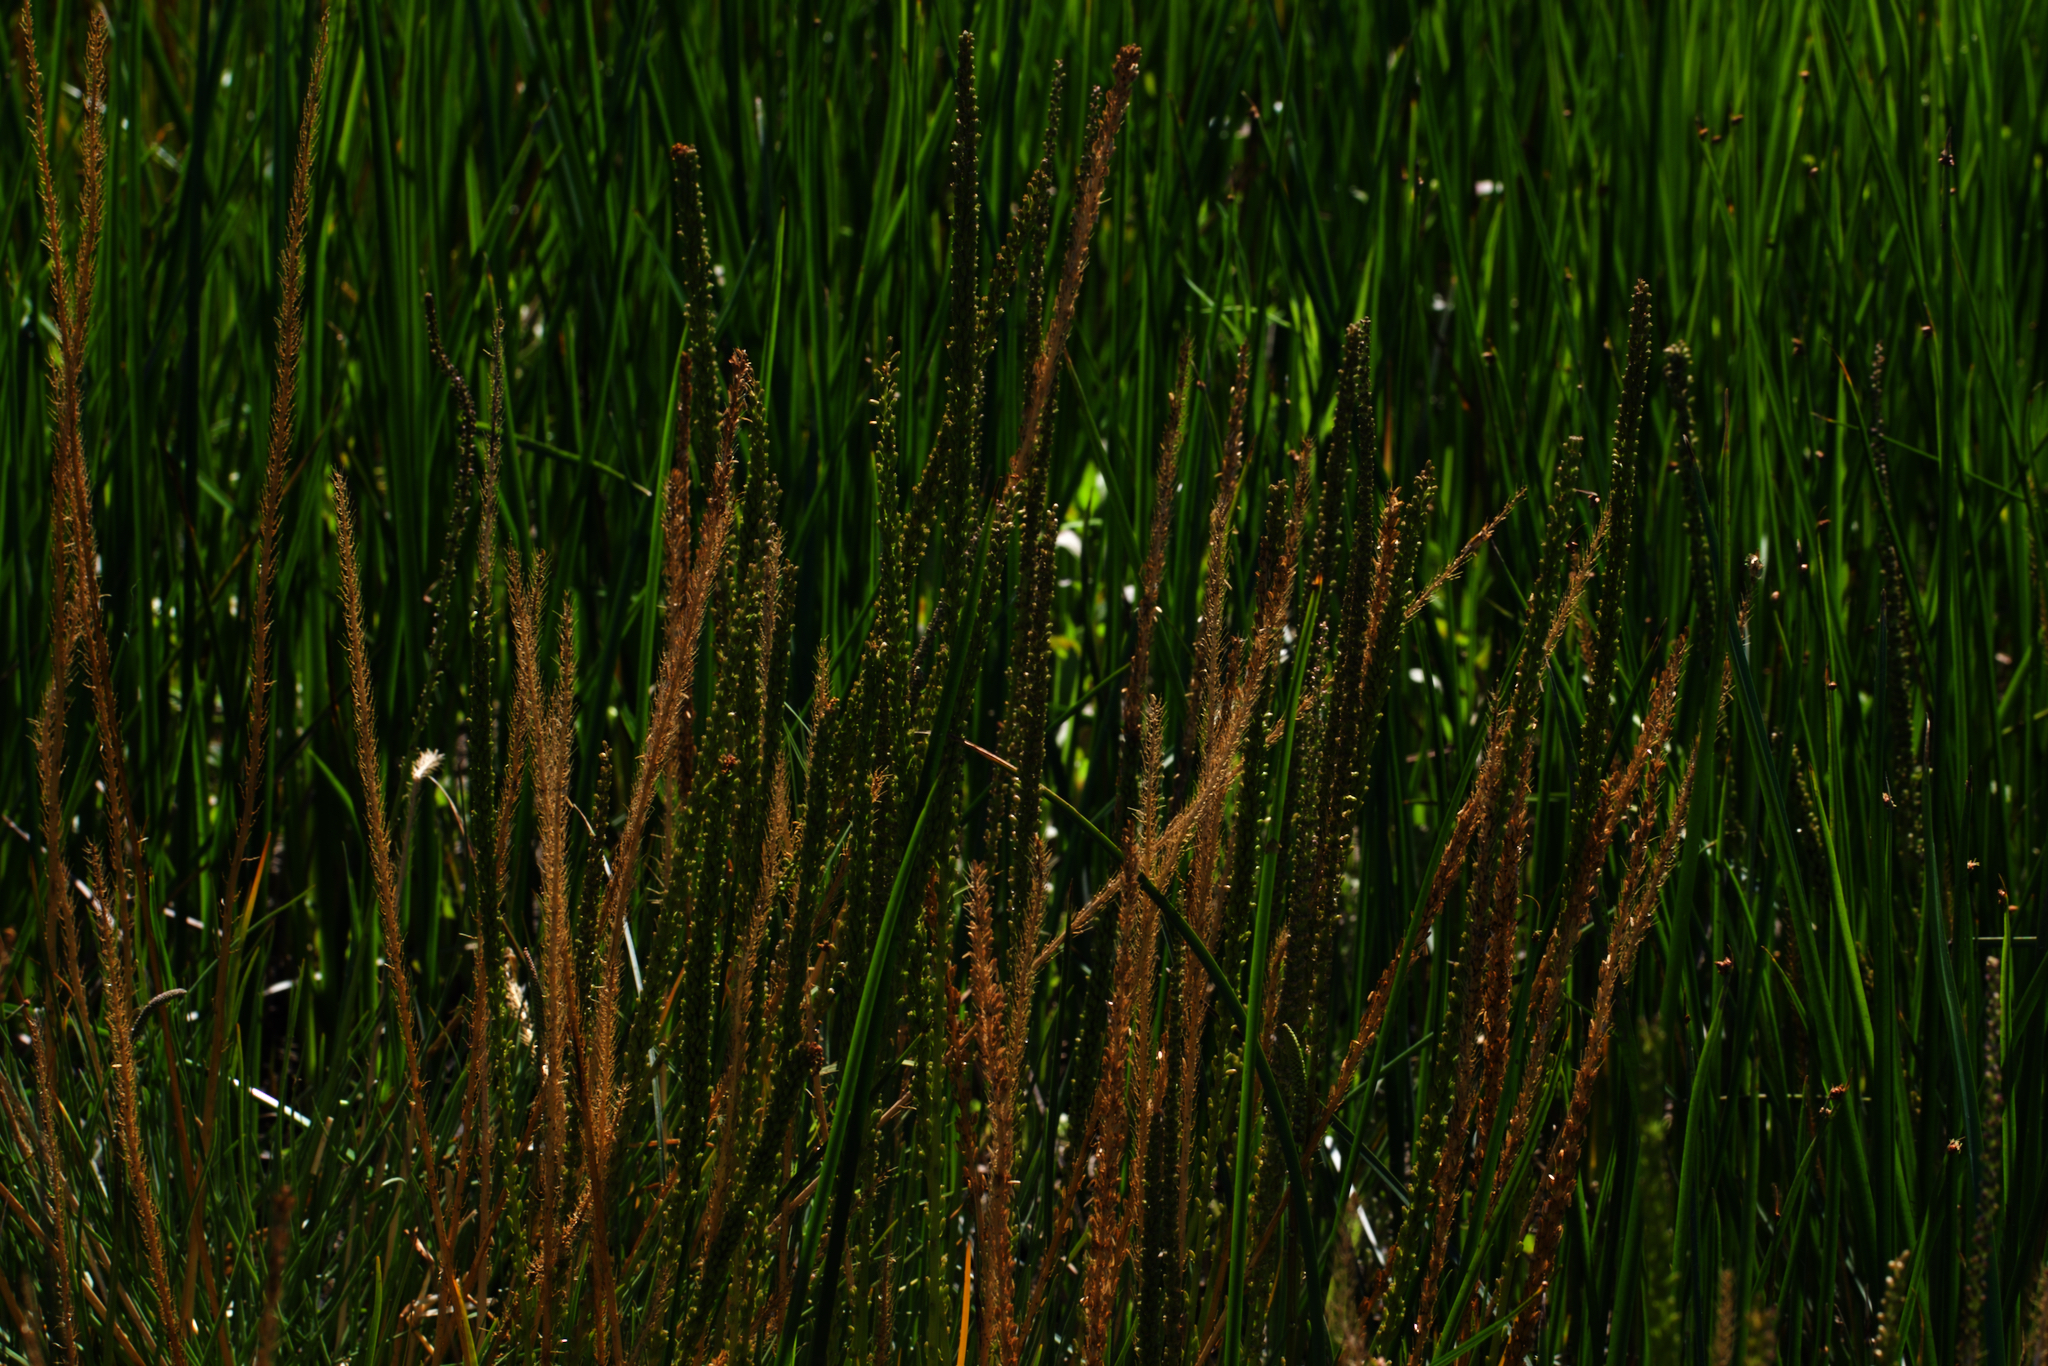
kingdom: Plantae
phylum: Tracheophyta
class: Liliopsida
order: Alismatales
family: Juncaginaceae
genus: Triglochin
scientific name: Triglochin maritima
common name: Sea arrowgrass
